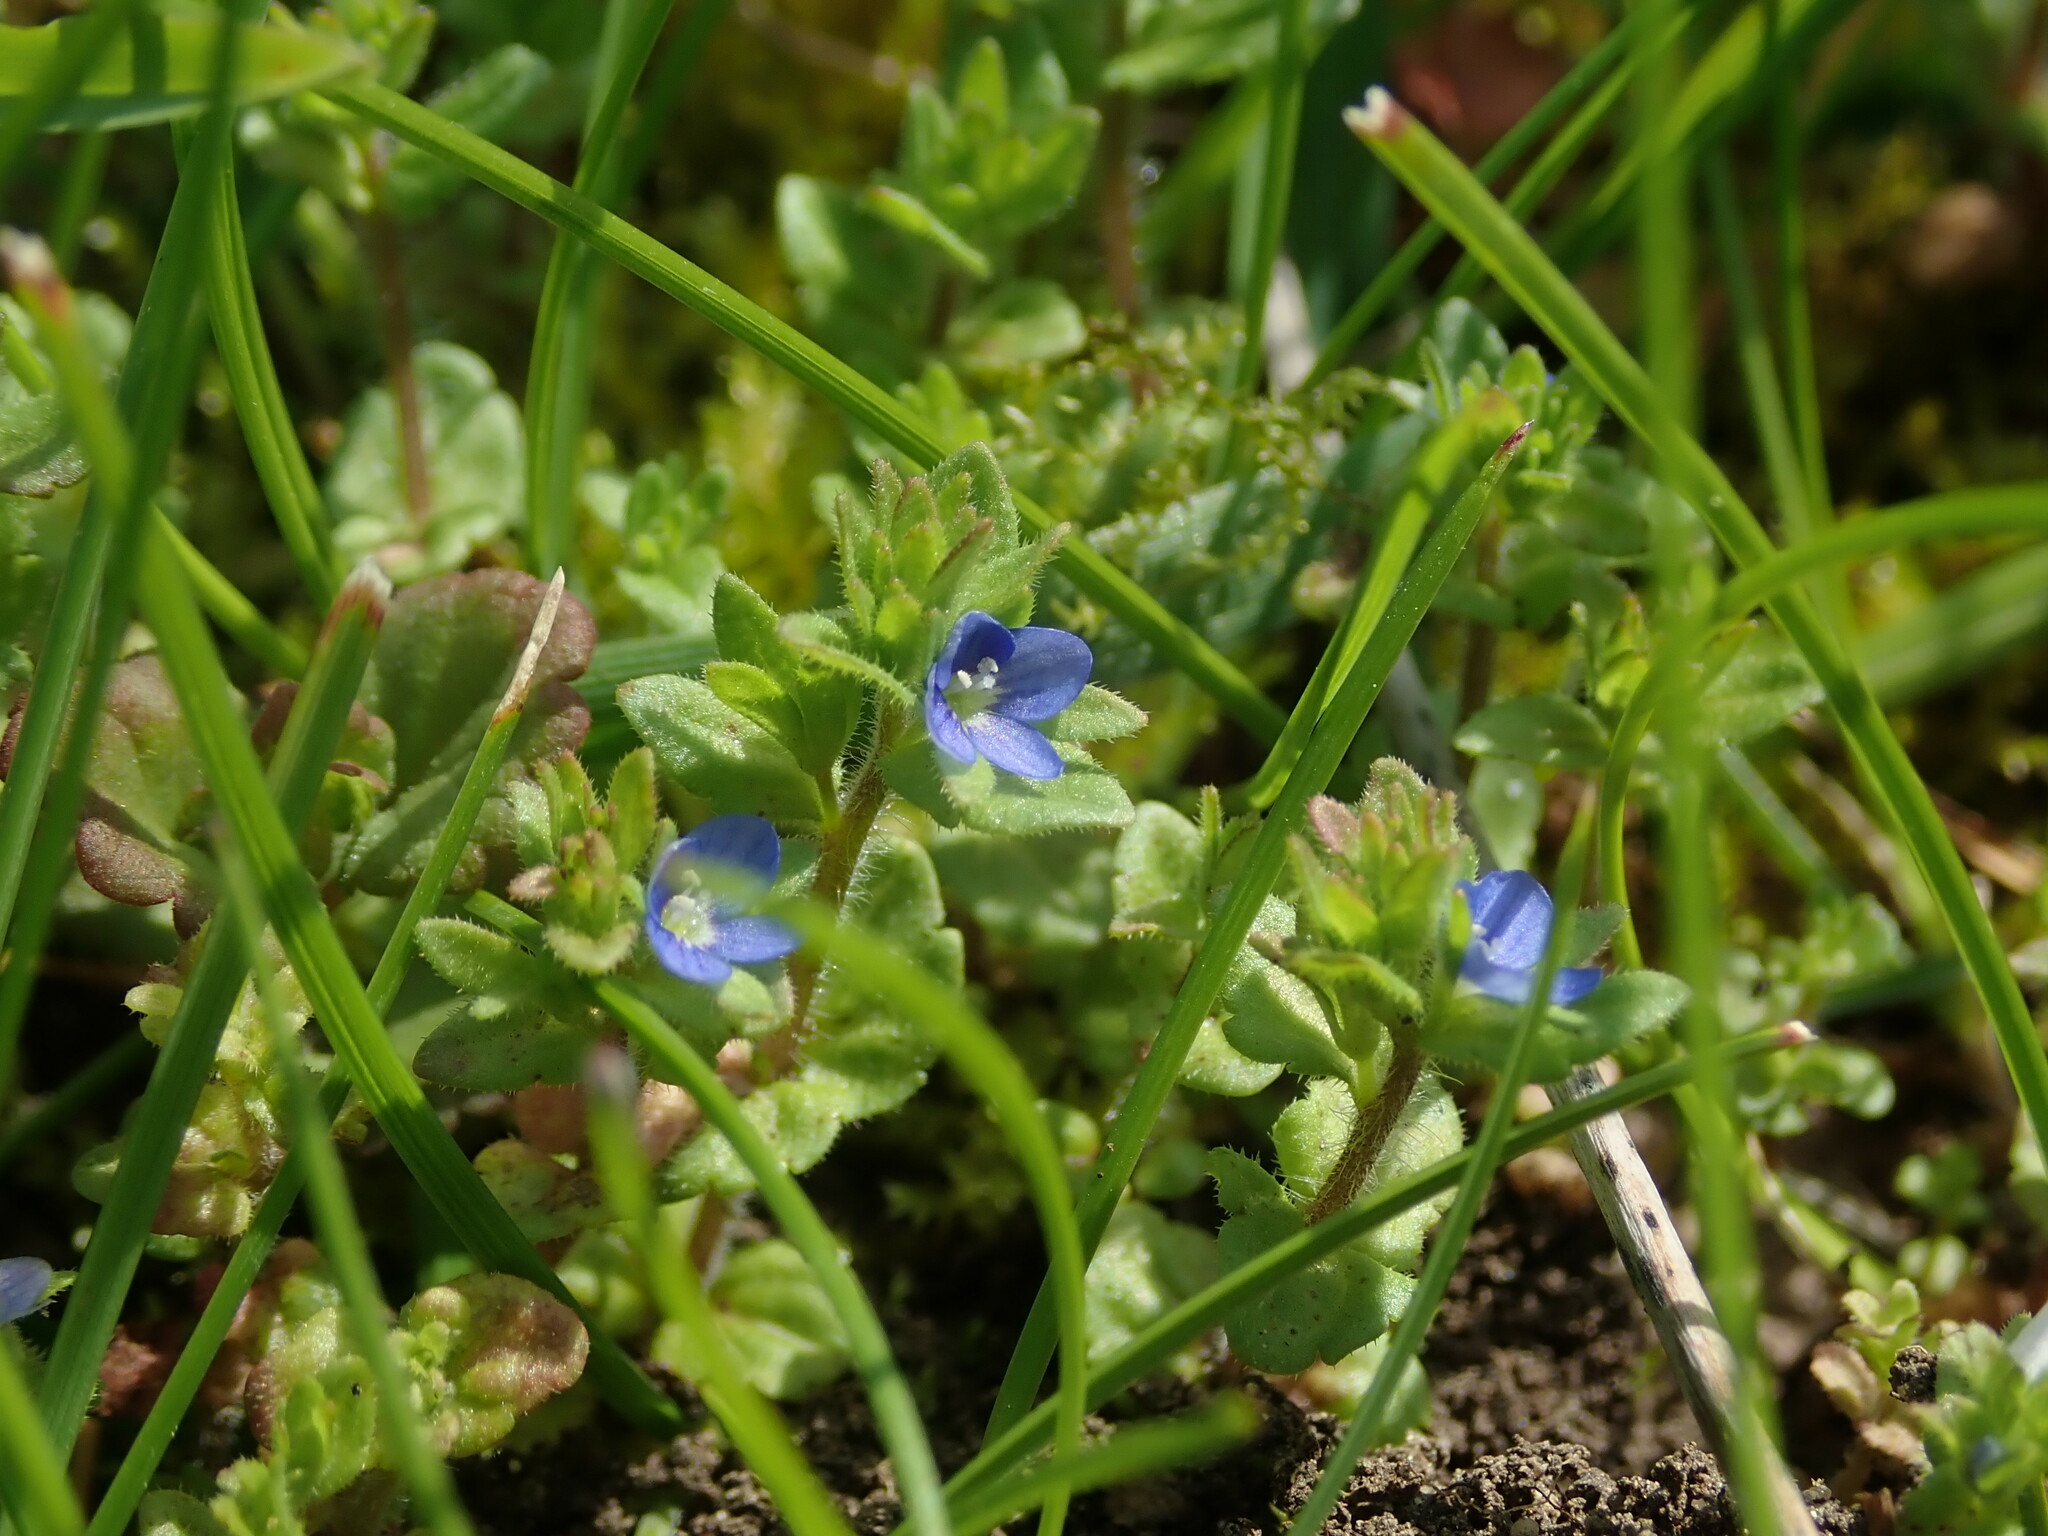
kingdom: Plantae
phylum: Tracheophyta
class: Magnoliopsida
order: Lamiales
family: Plantaginaceae
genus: Veronica
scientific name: Veronica arvensis
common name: Corn speedwell
